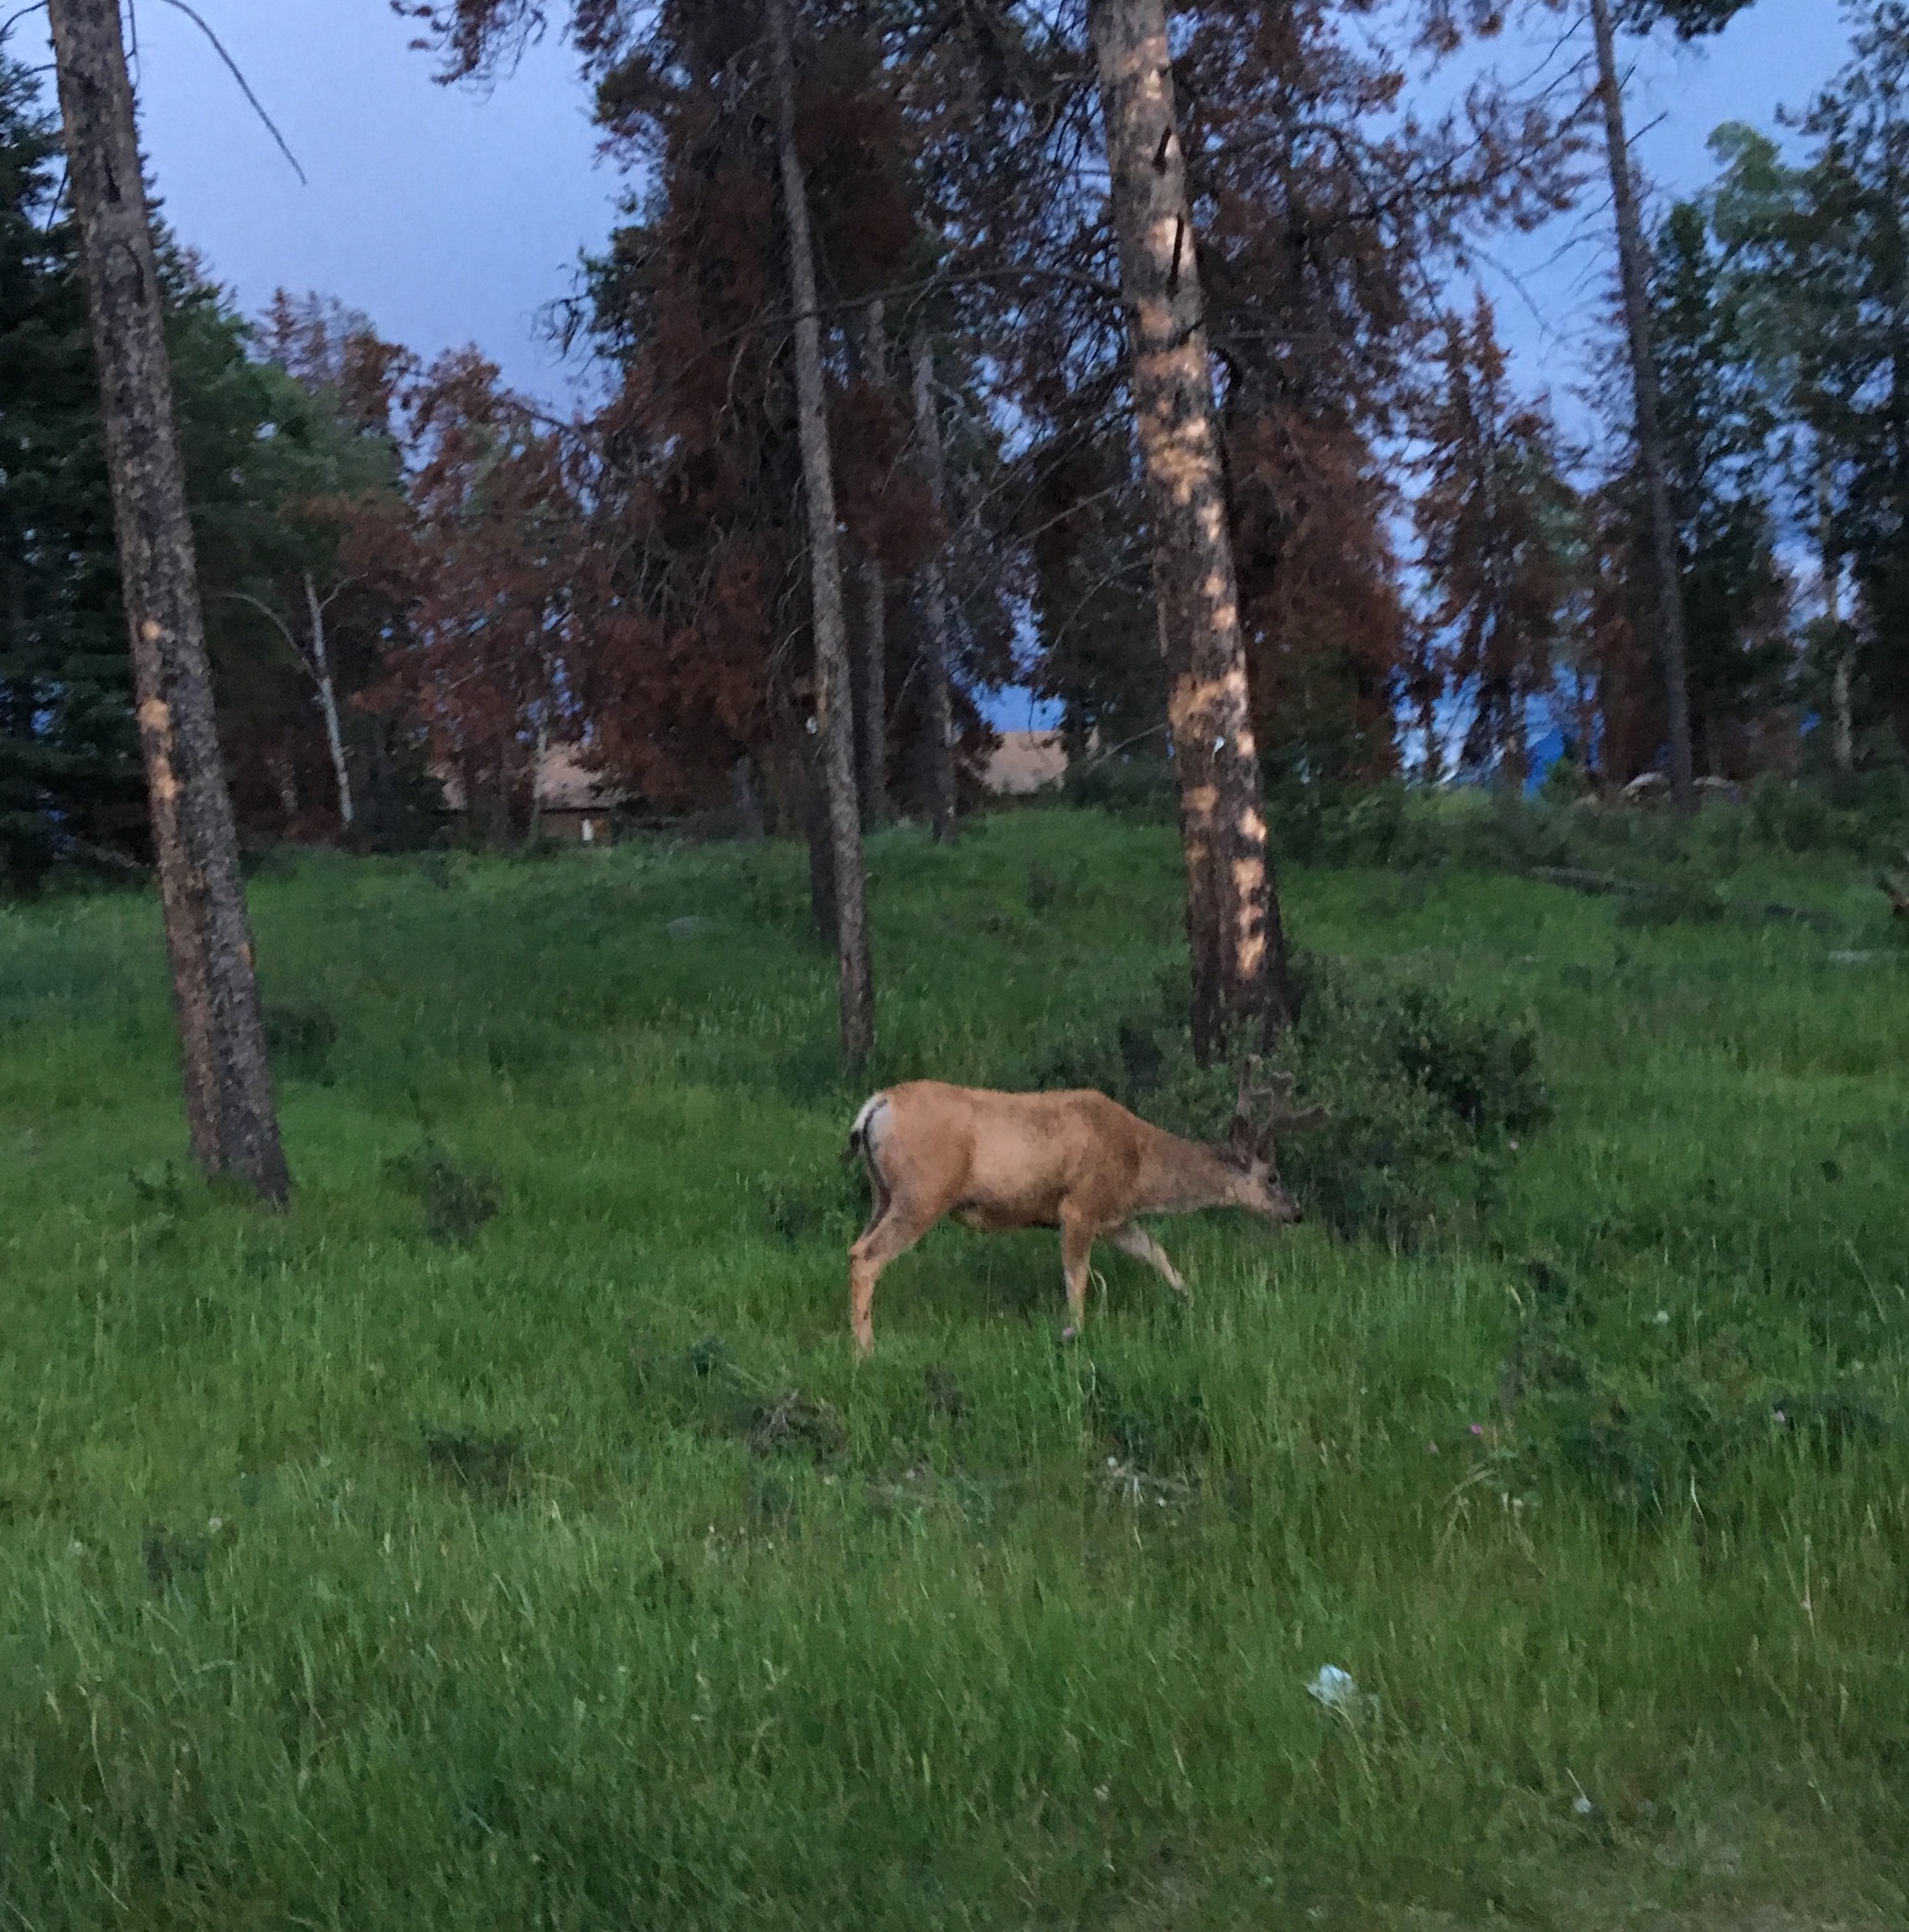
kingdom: Animalia
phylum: Chordata
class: Mammalia
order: Artiodactyla
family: Cervidae
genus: Odocoileus
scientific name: Odocoileus hemionus
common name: Mule deer
